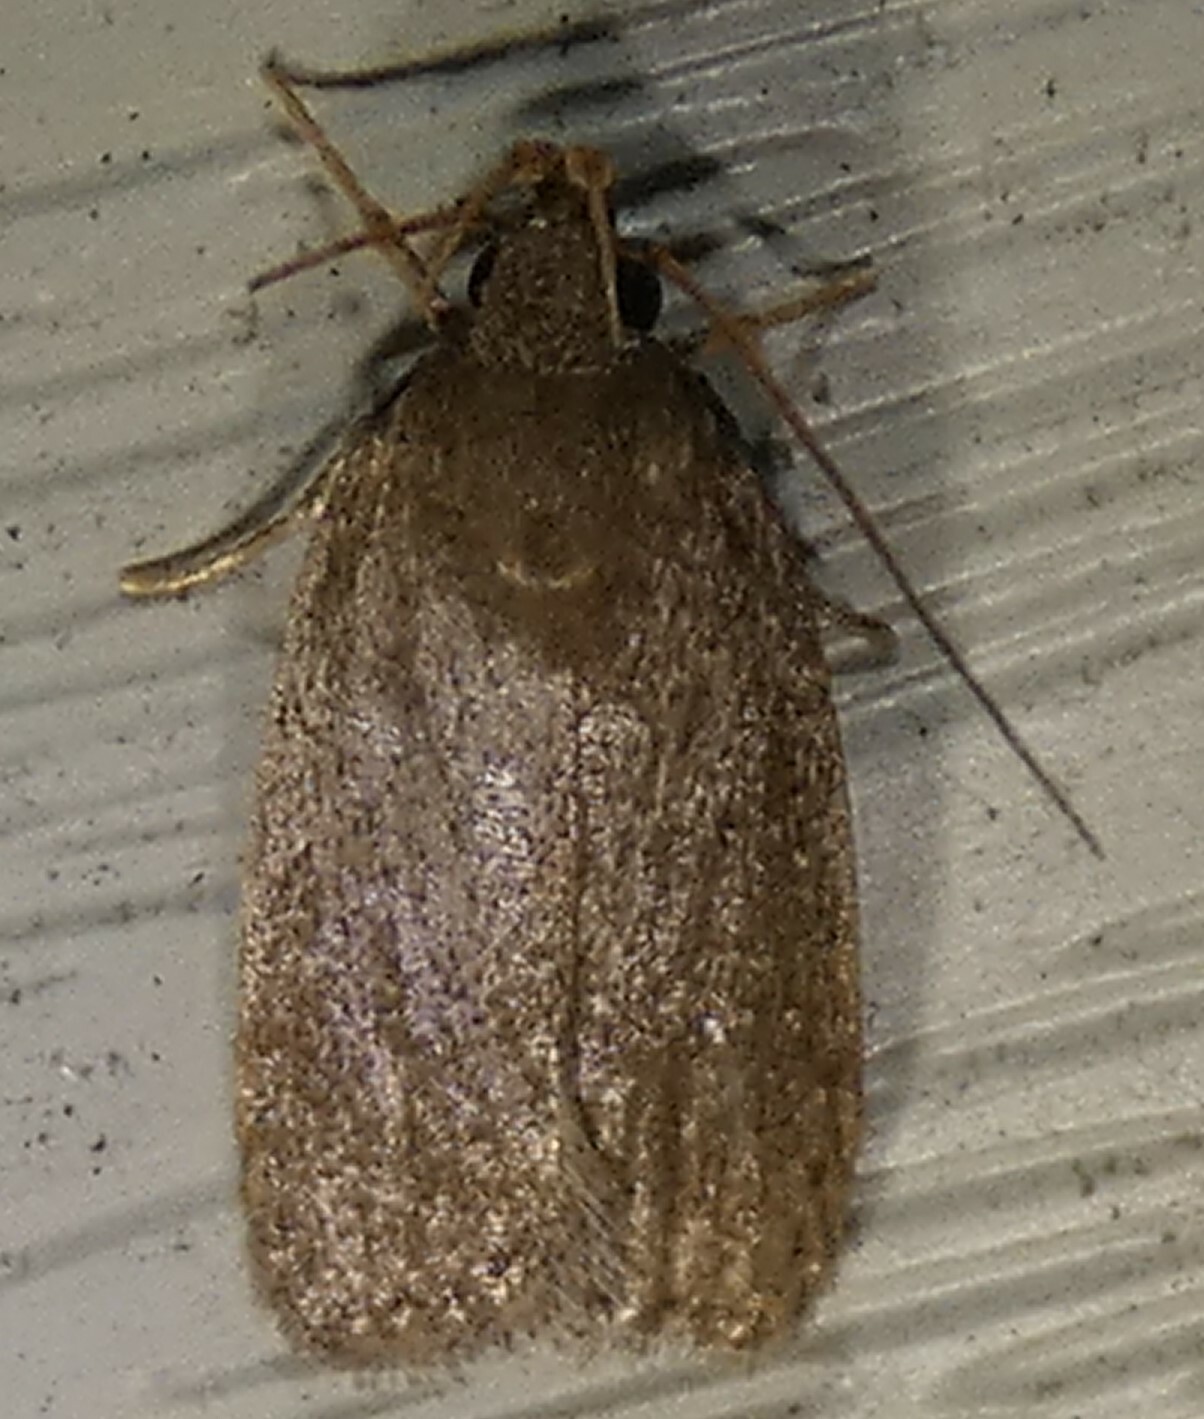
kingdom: Animalia
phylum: Arthropoda
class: Insecta
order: Lepidoptera
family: Autostichidae
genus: Autosticha
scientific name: Autosticha kyotensis
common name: Kyoto moth
